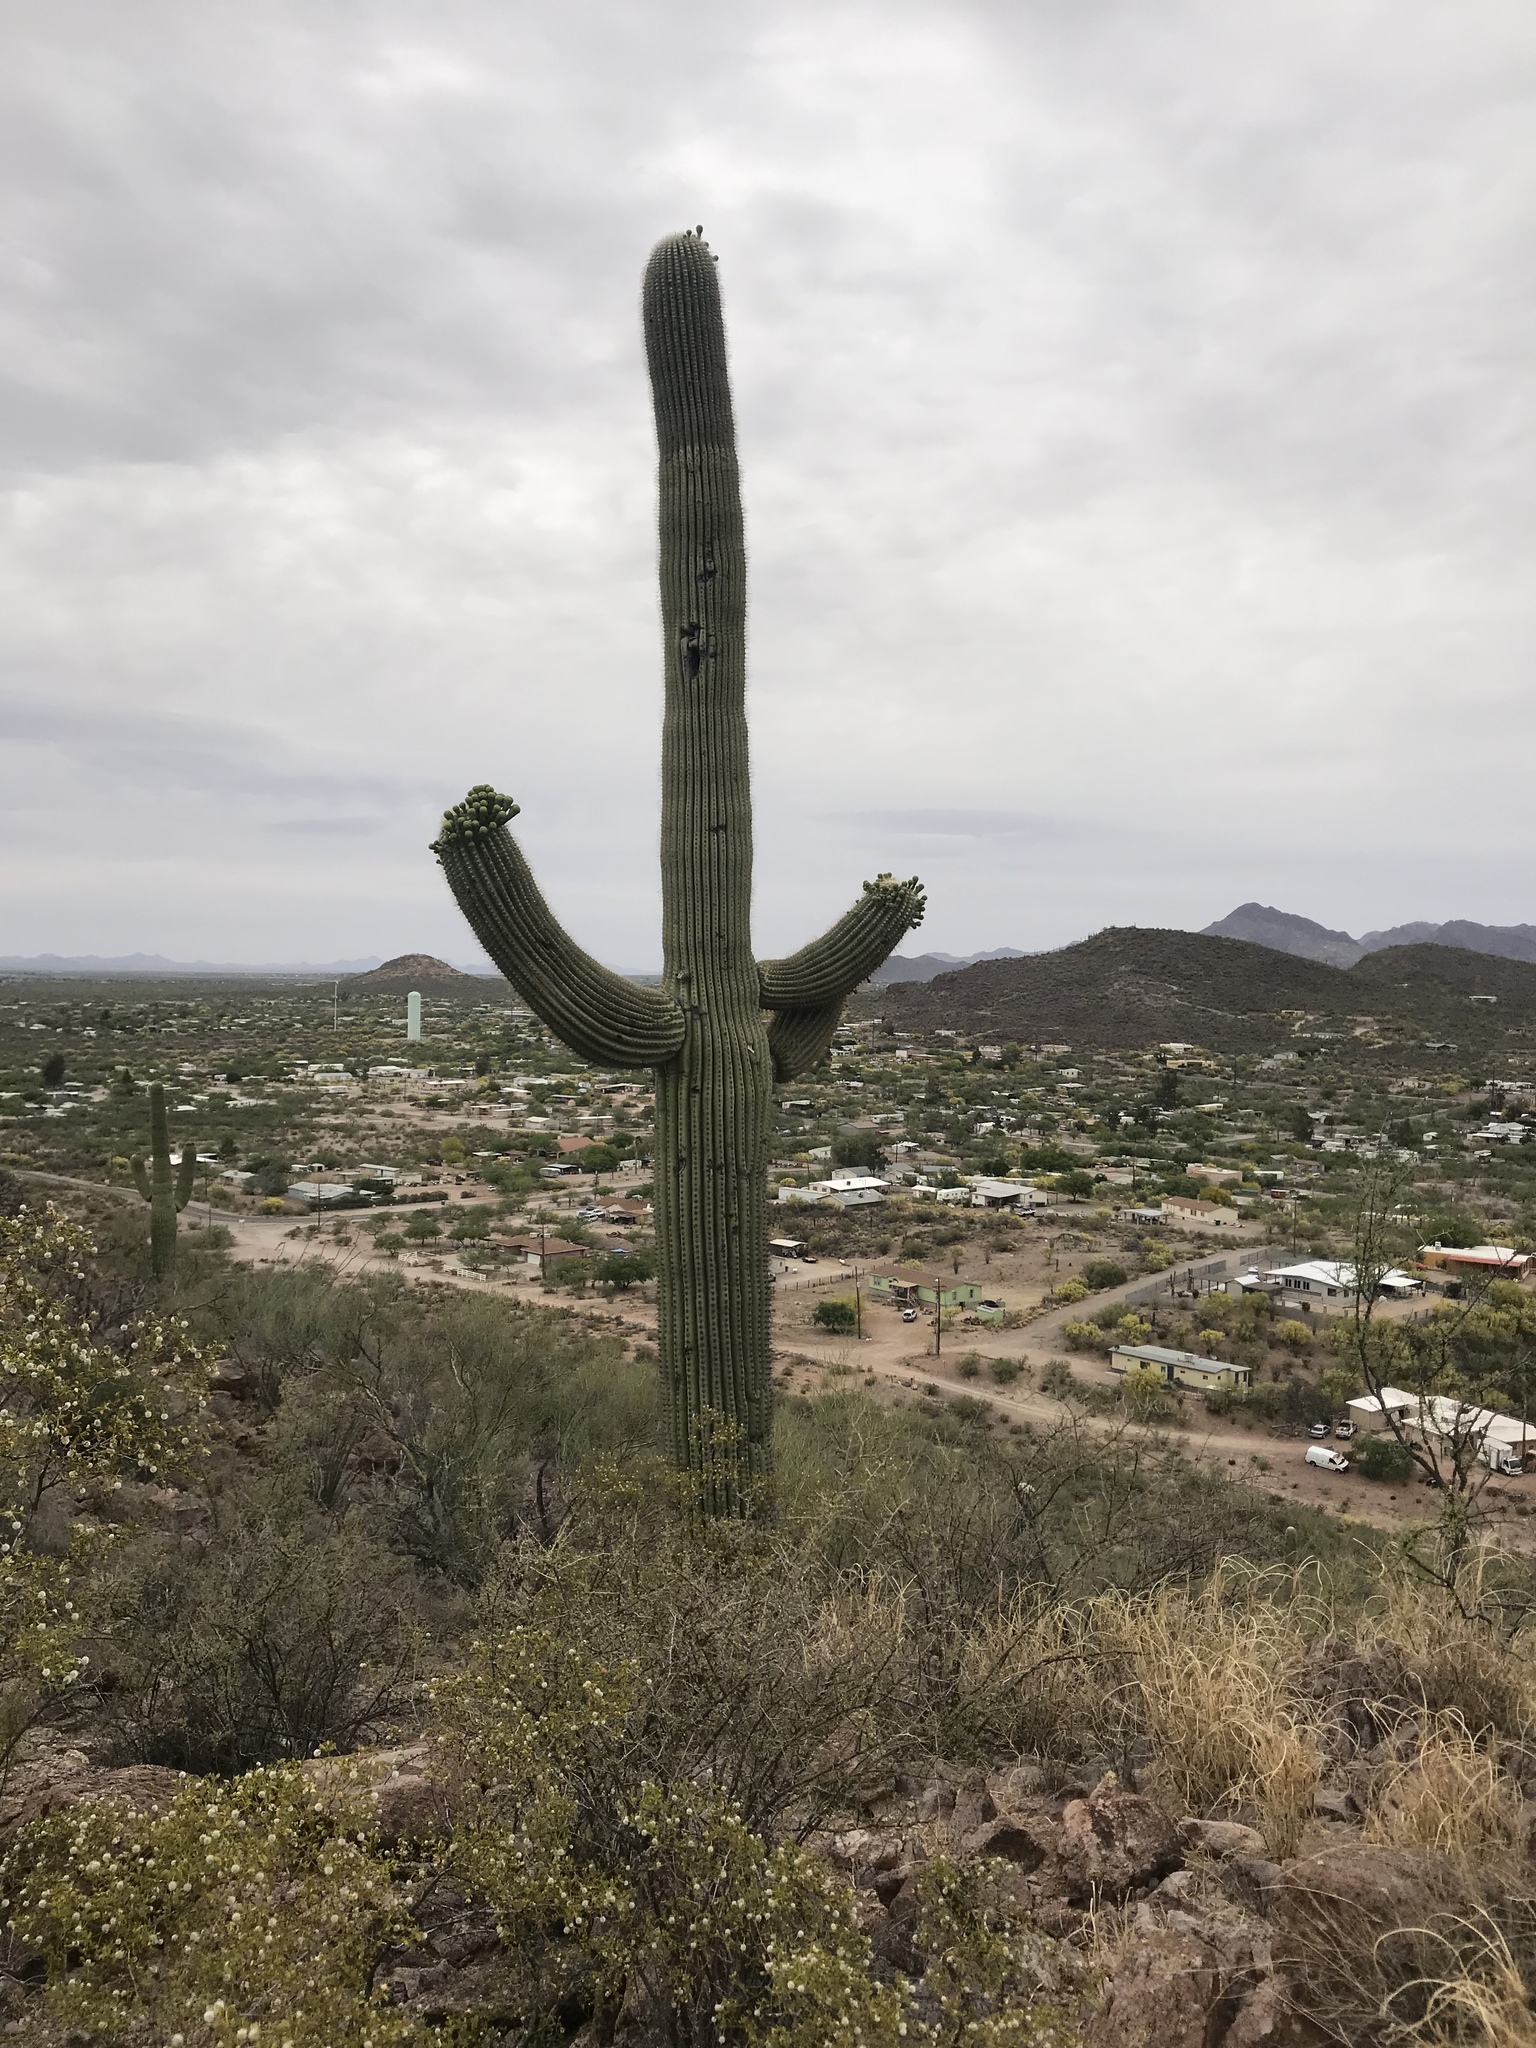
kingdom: Plantae
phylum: Tracheophyta
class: Magnoliopsida
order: Caryophyllales
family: Cactaceae
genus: Carnegiea
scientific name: Carnegiea gigantea
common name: Saguaro
